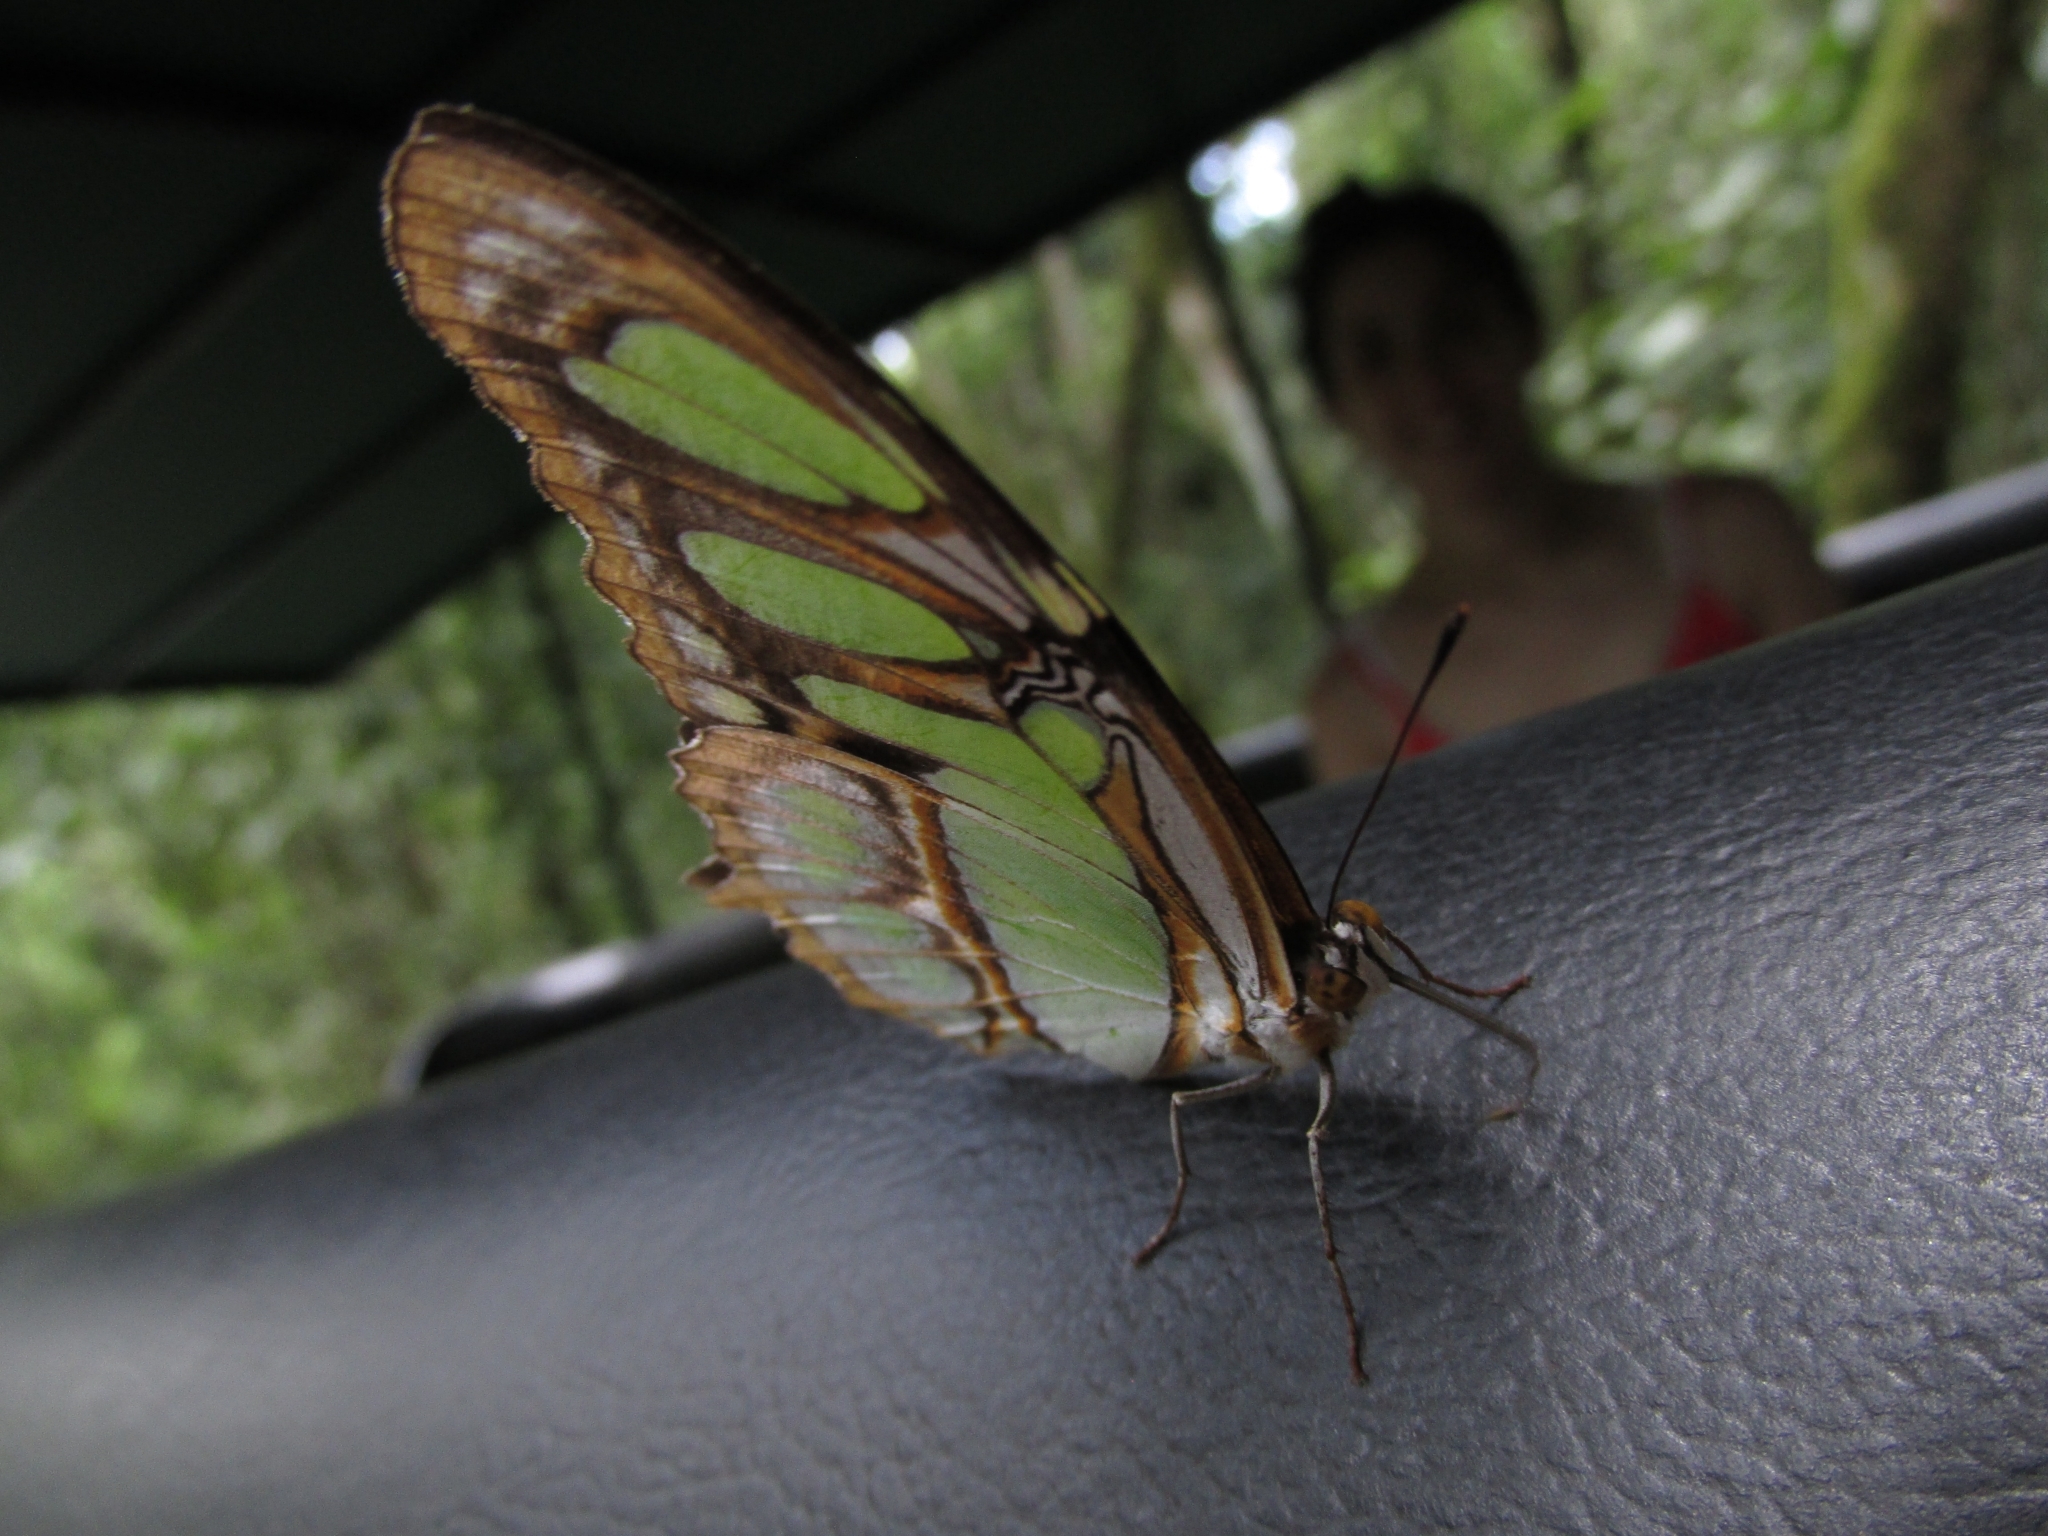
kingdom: Animalia
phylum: Arthropoda
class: Insecta
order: Lepidoptera
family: Nymphalidae
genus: Siproeta
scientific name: Siproeta stelenes
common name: Malachite
